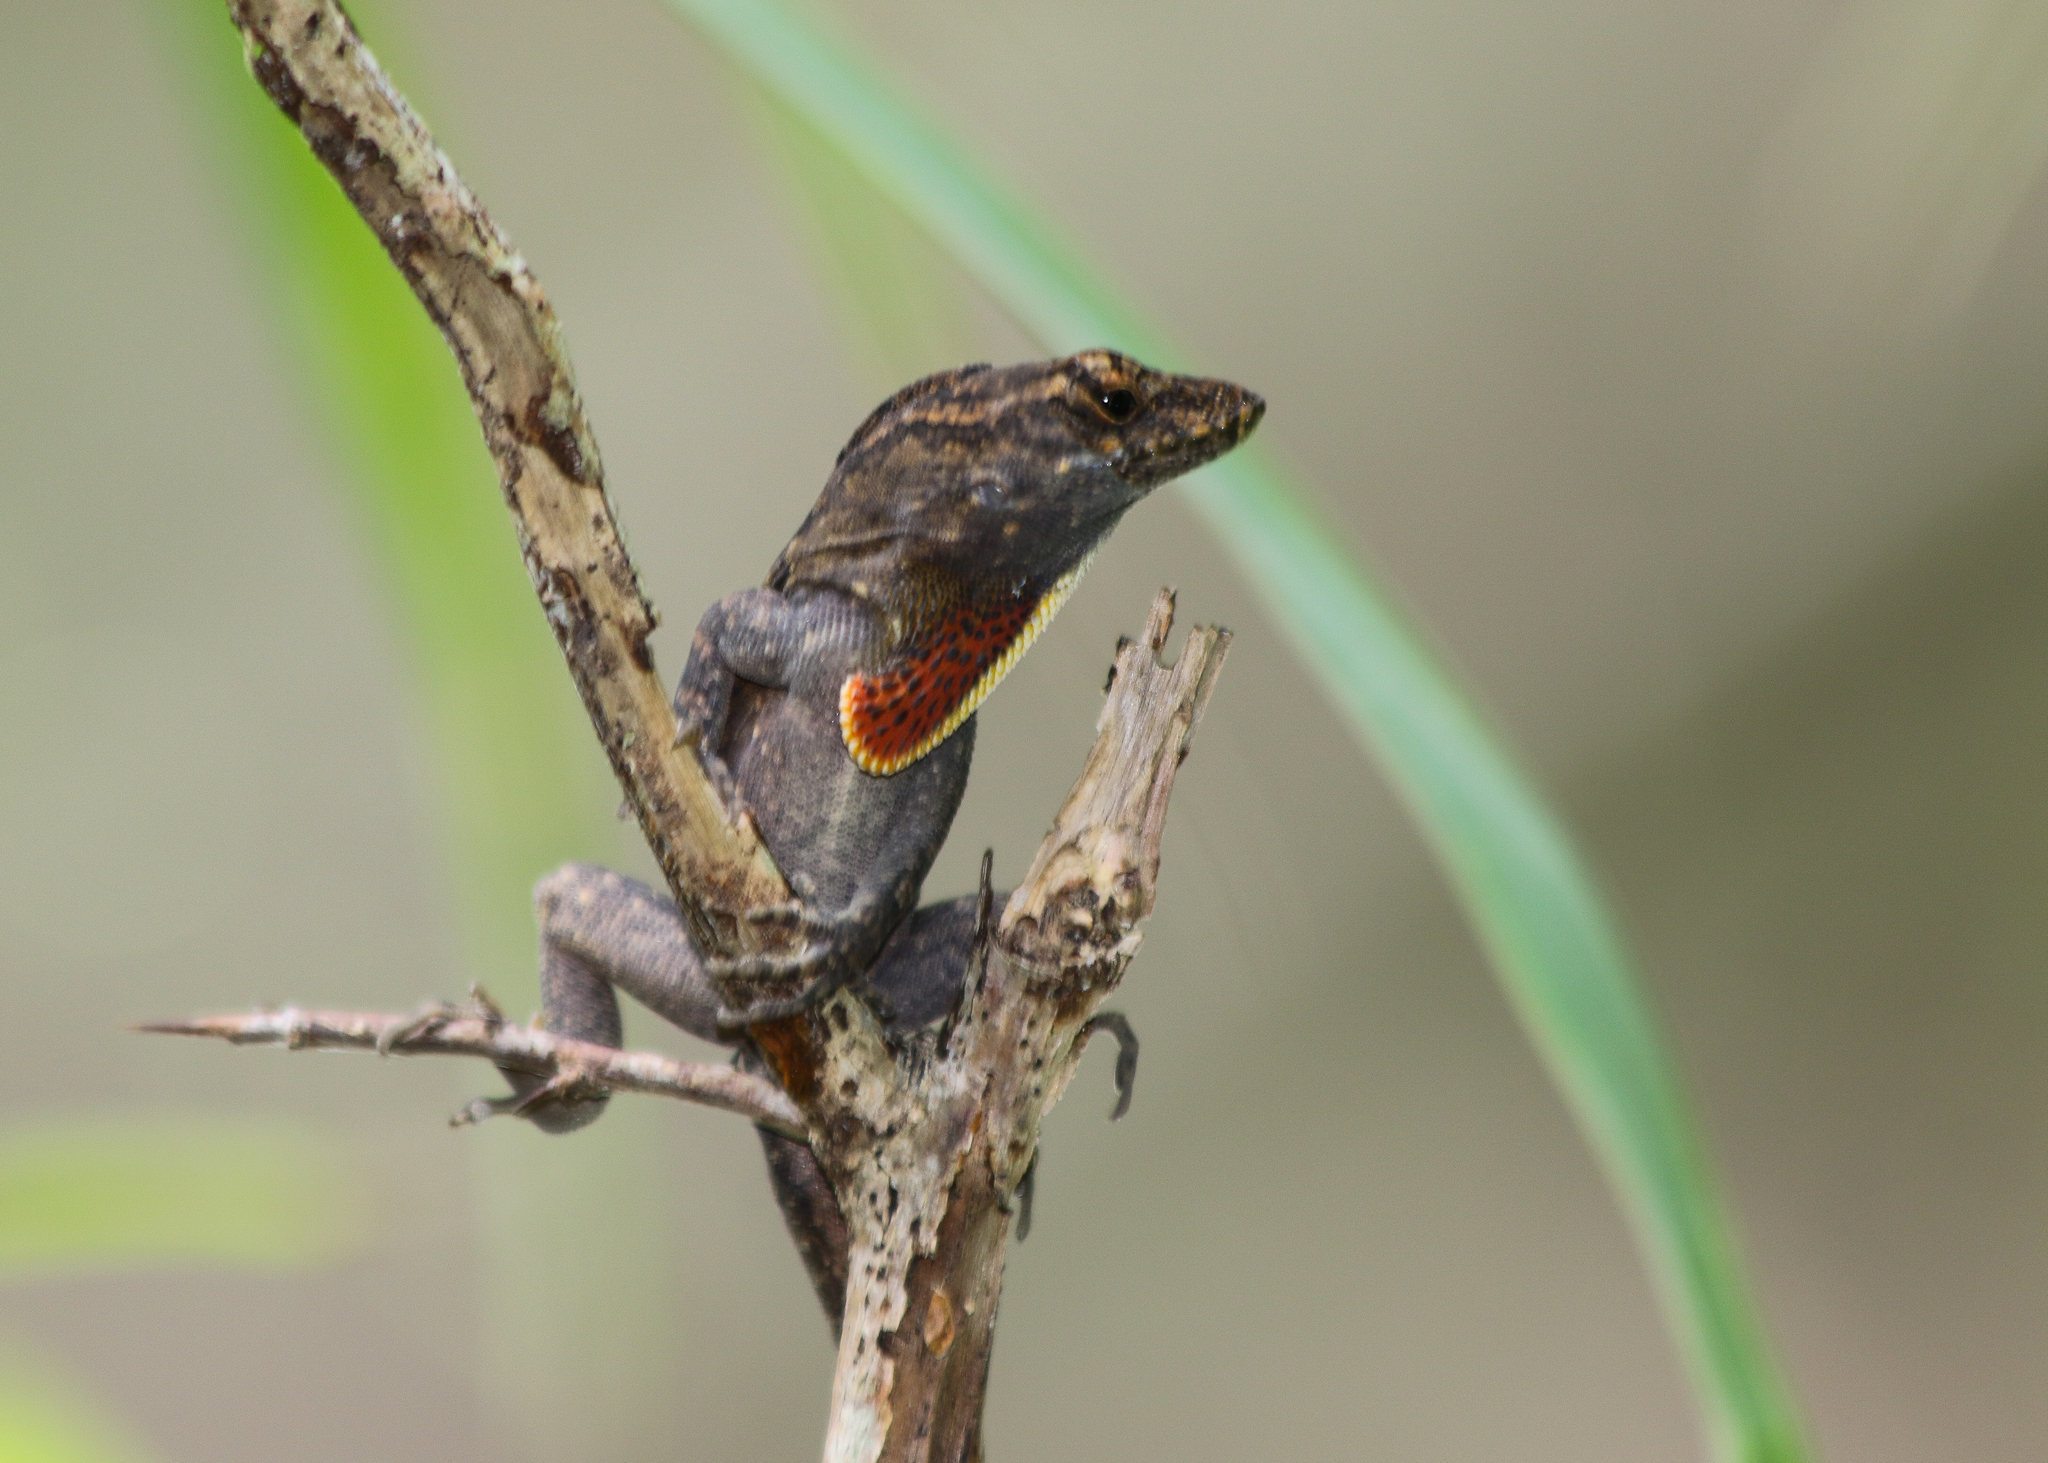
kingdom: Animalia
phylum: Chordata
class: Squamata
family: Dactyloidae
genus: Anolis
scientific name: Anolis sagrei
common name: Brown anole
